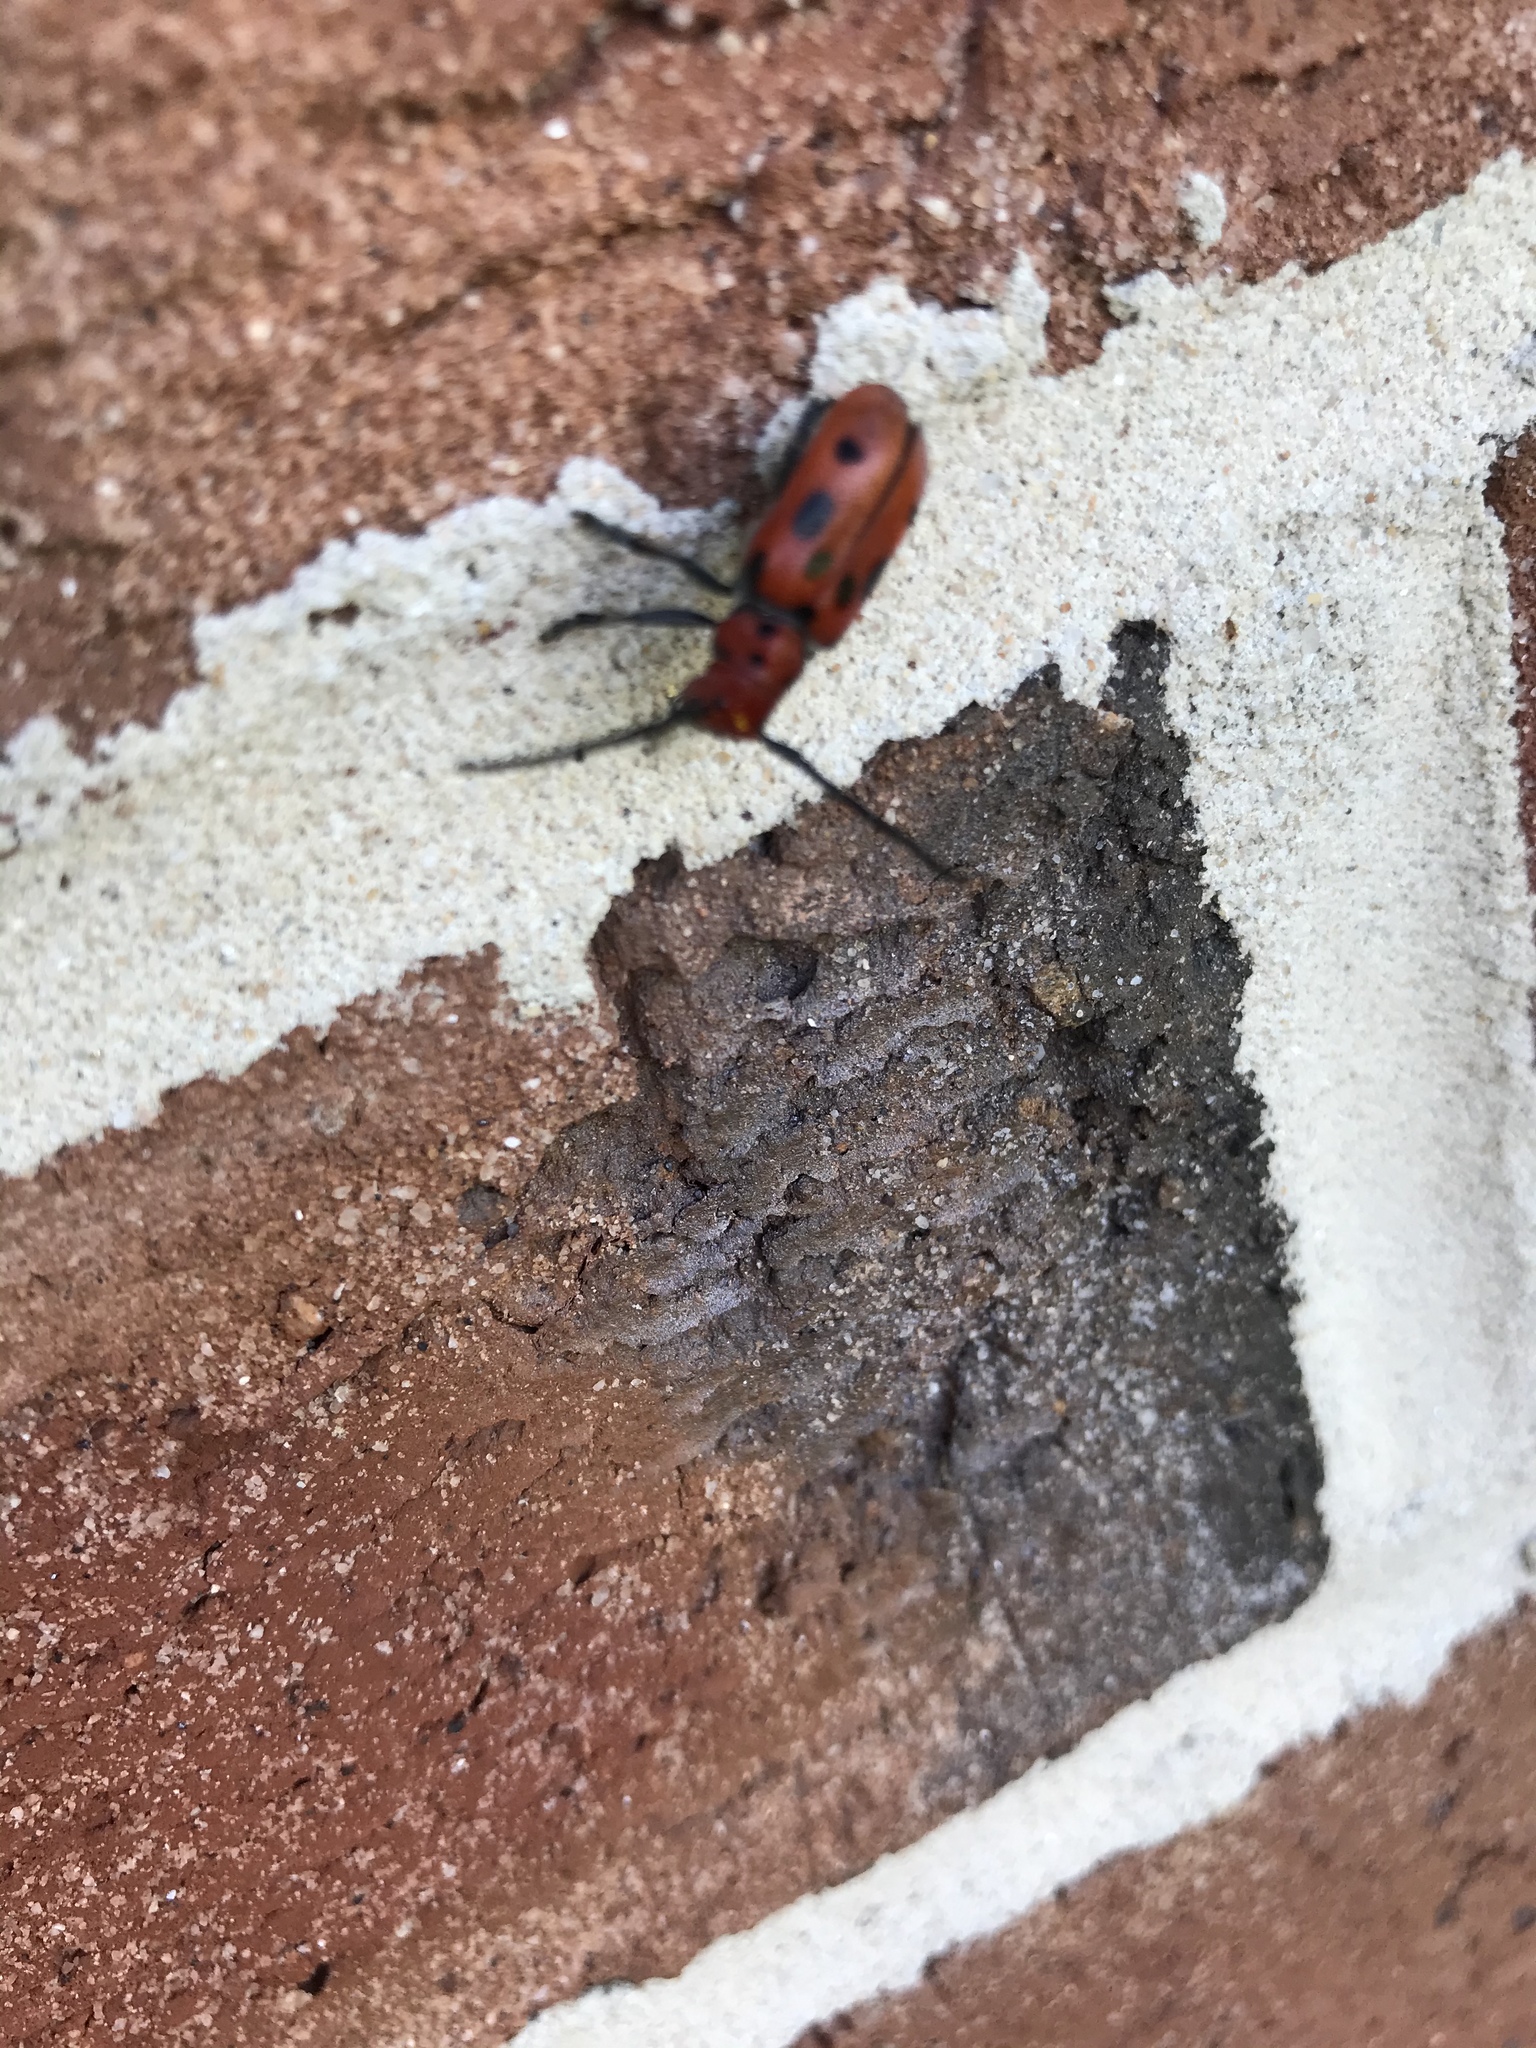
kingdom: Animalia
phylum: Arthropoda
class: Insecta
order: Coleoptera
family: Cerambycidae
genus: Tetraopes
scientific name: Tetraopes tetrophthalmus
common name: Red milkweed beetle
